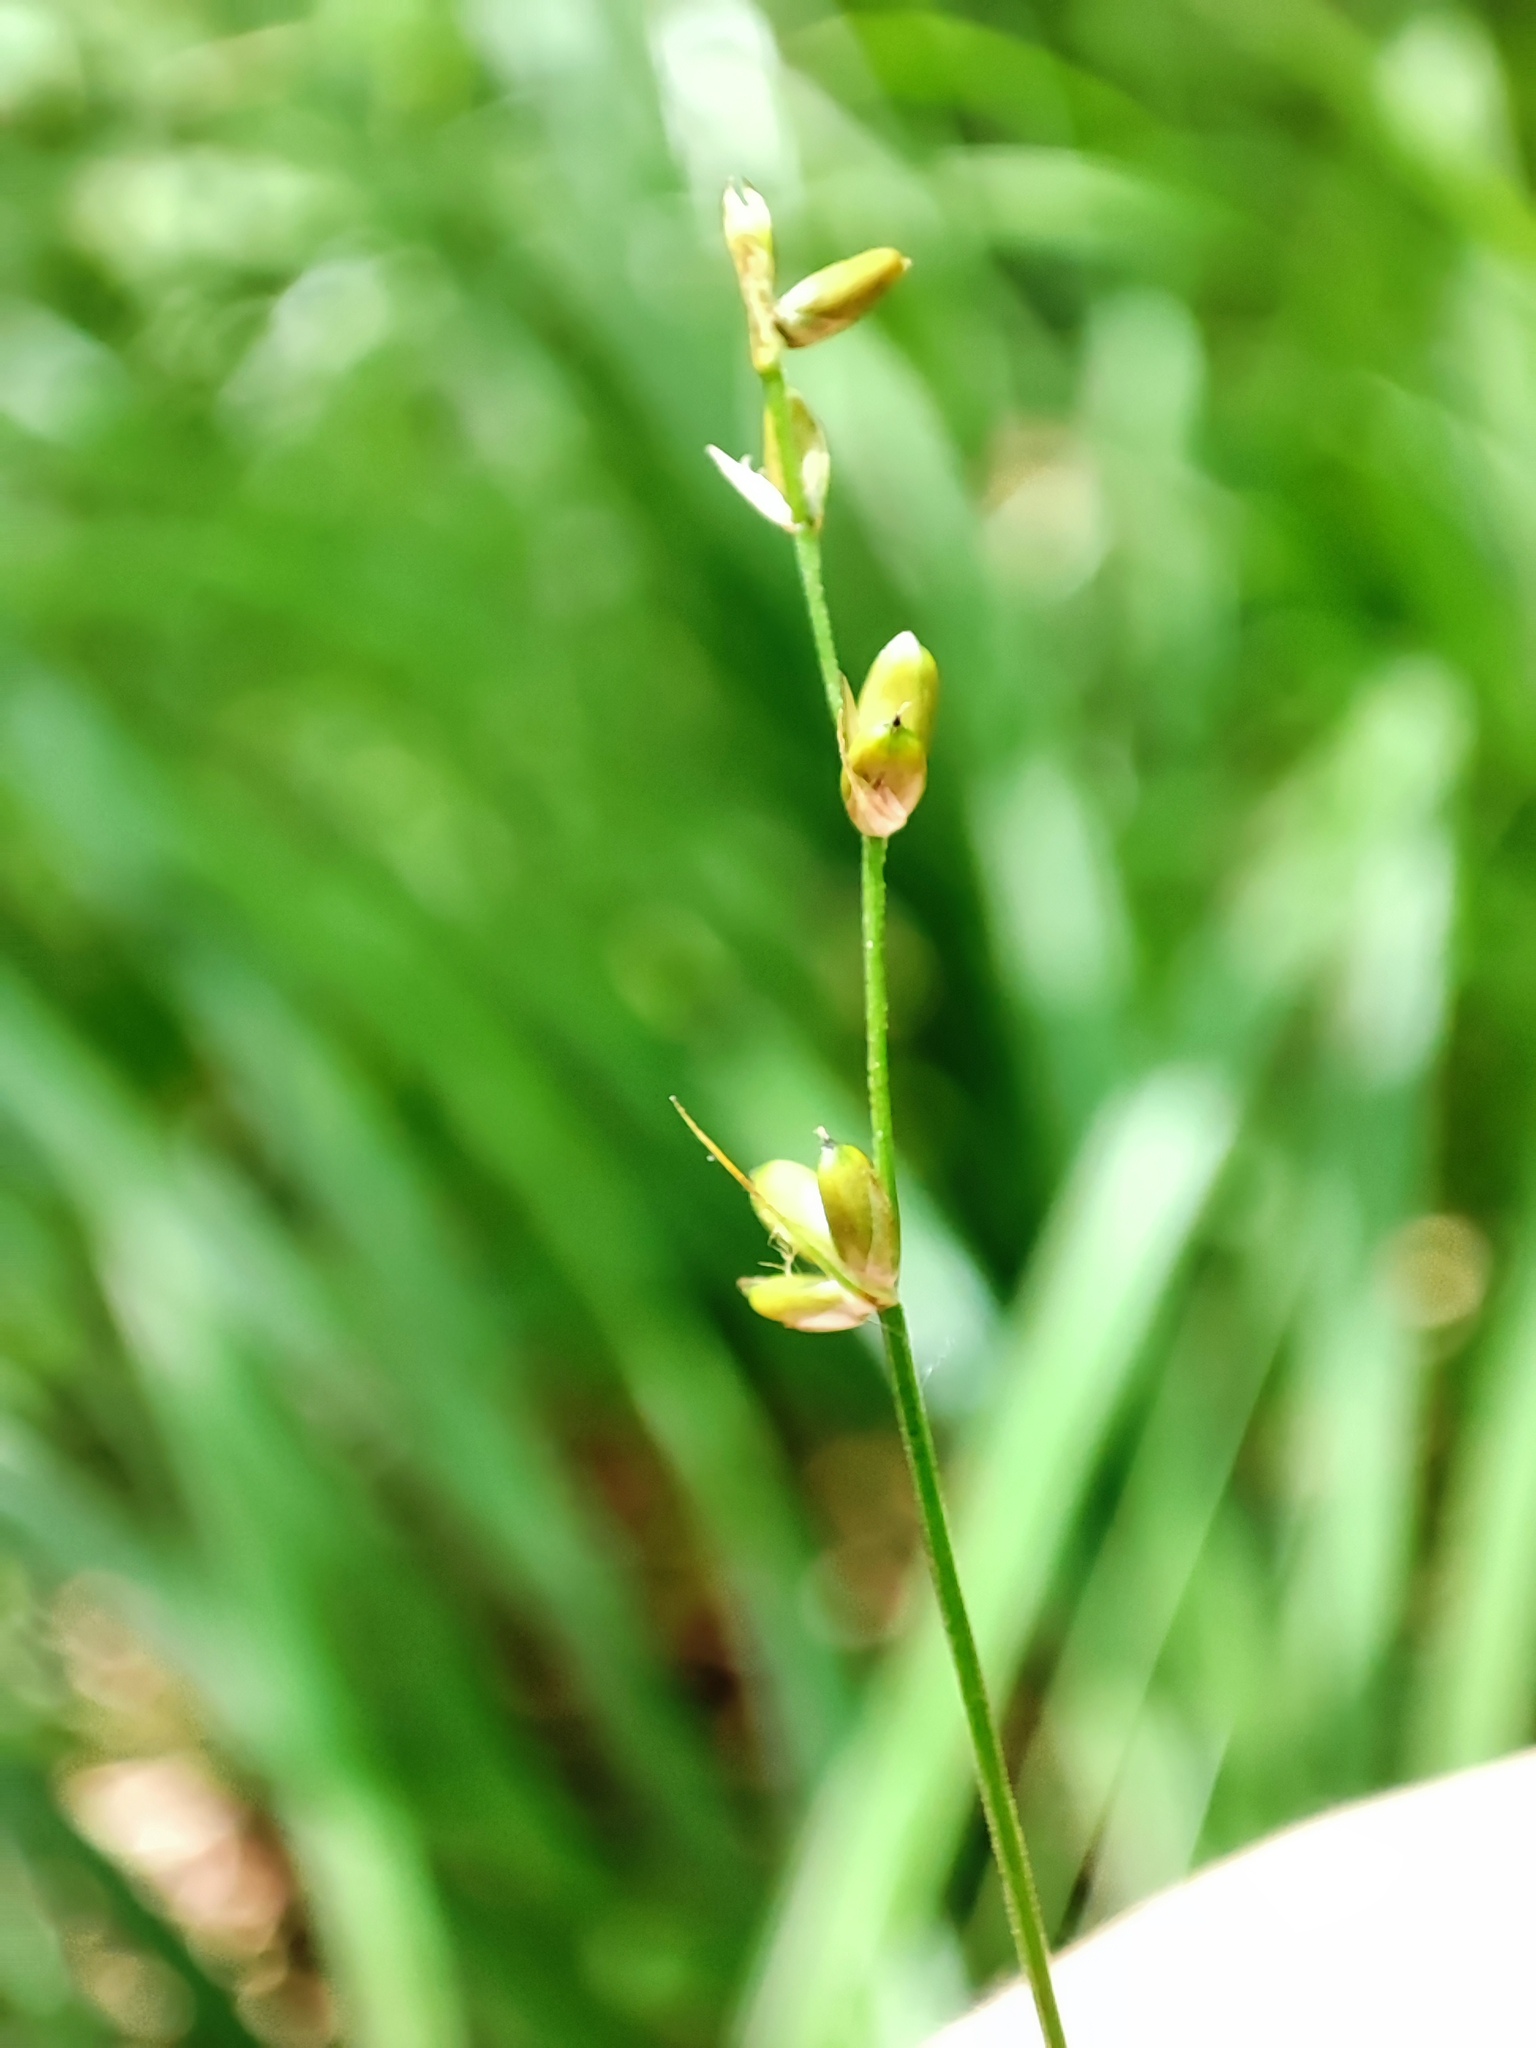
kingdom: Plantae
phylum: Tracheophyta
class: Liliopsida
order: Poales
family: Cyperaceae
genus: Carex
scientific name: Carex disperma
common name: Short-leaved sedge
